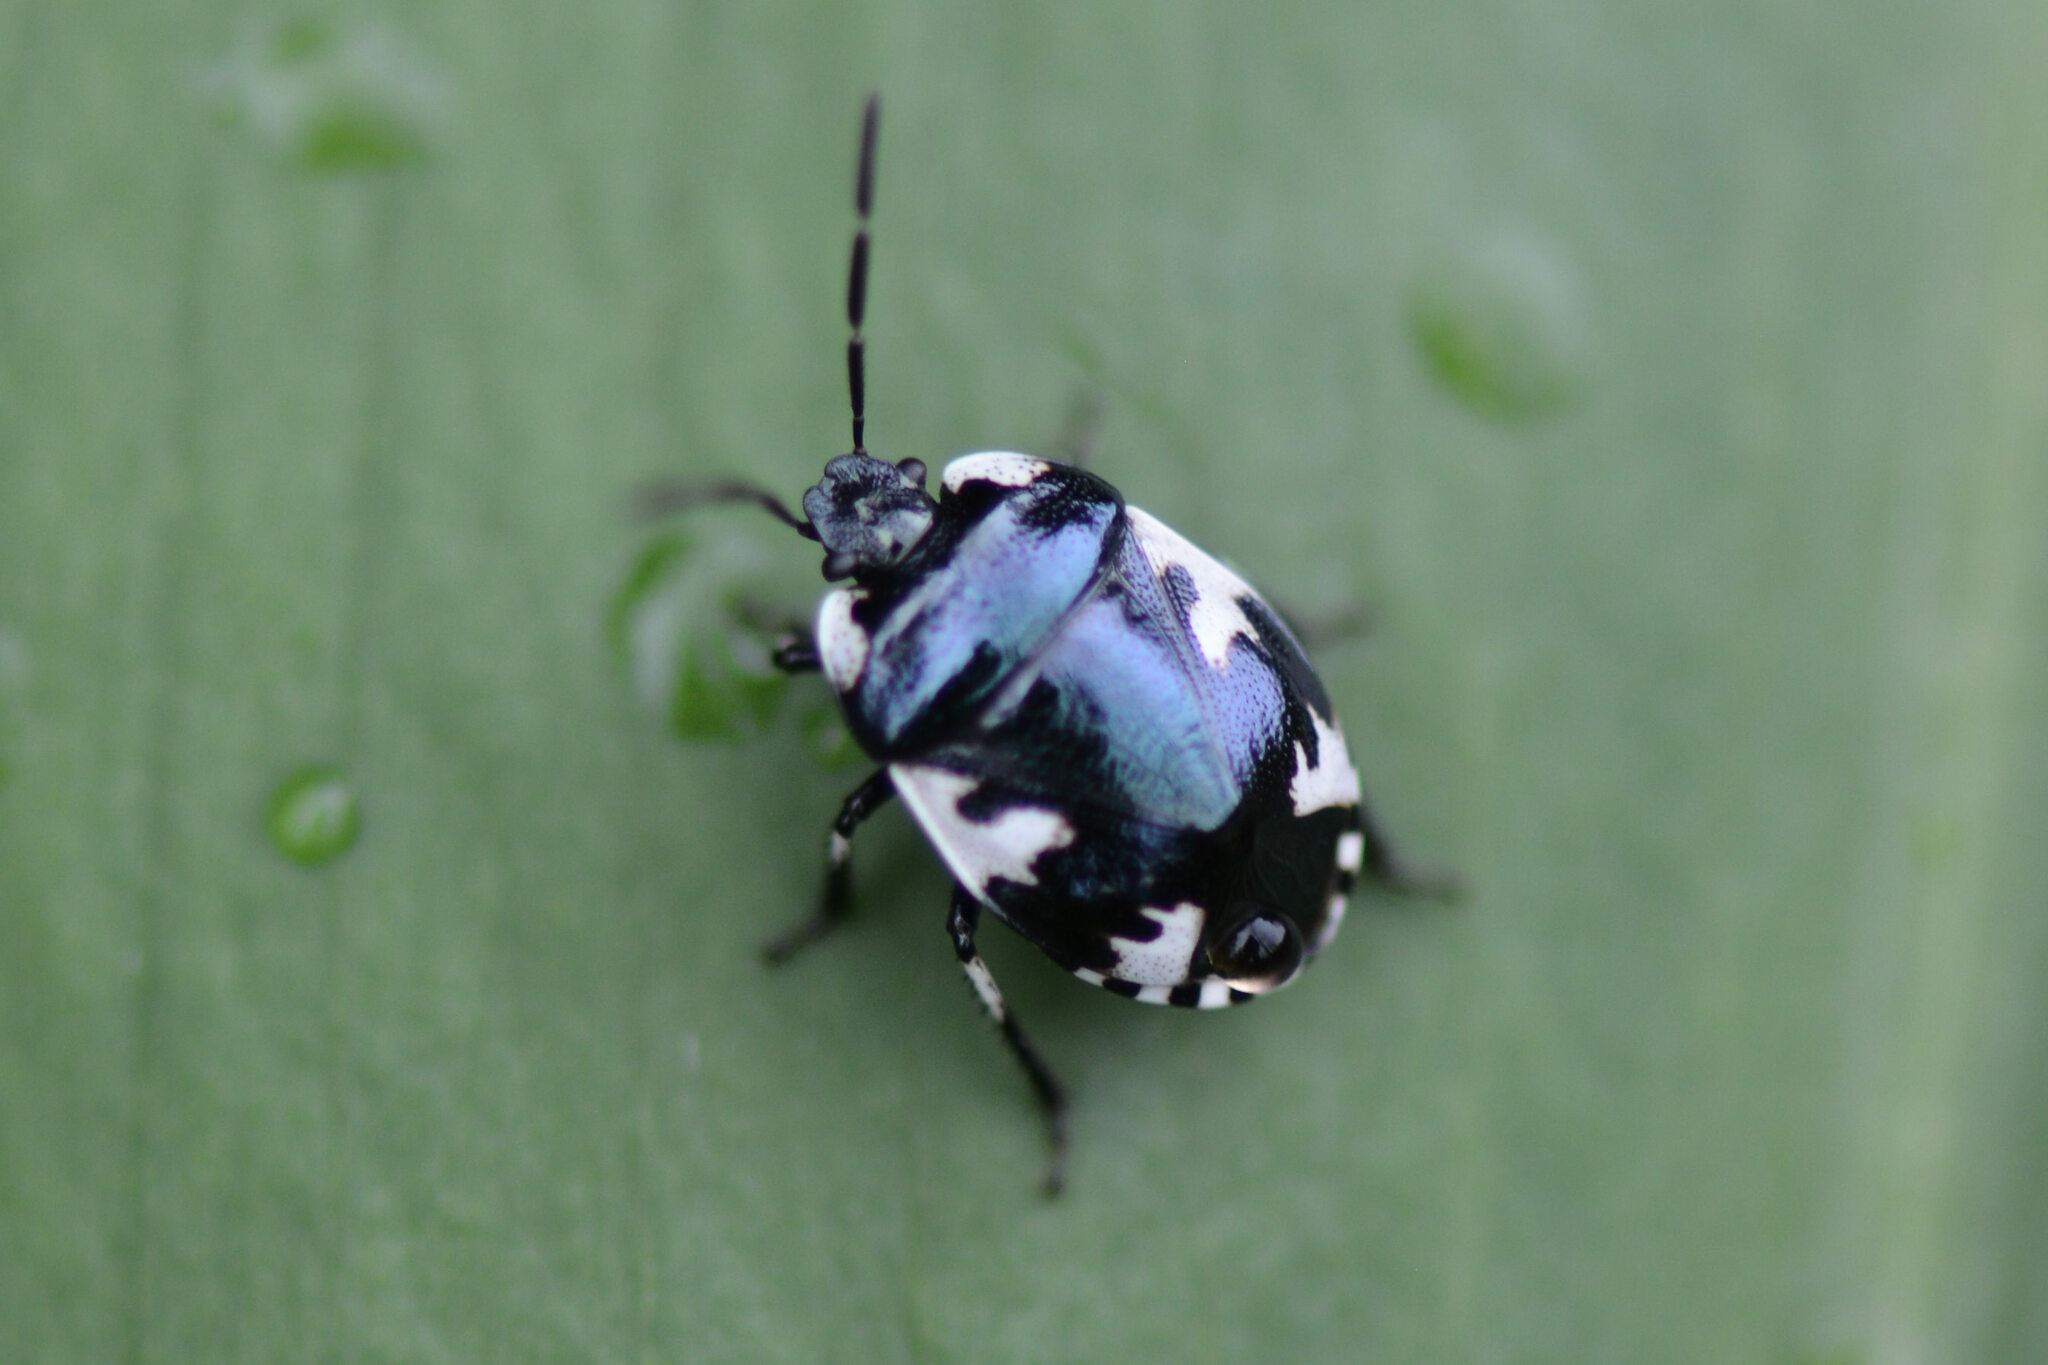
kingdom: Animalia
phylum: Arthropoda
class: Insecta
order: Hemiptera
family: Cydnidae
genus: Tritomegas
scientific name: Tritomegas rotundipennis
